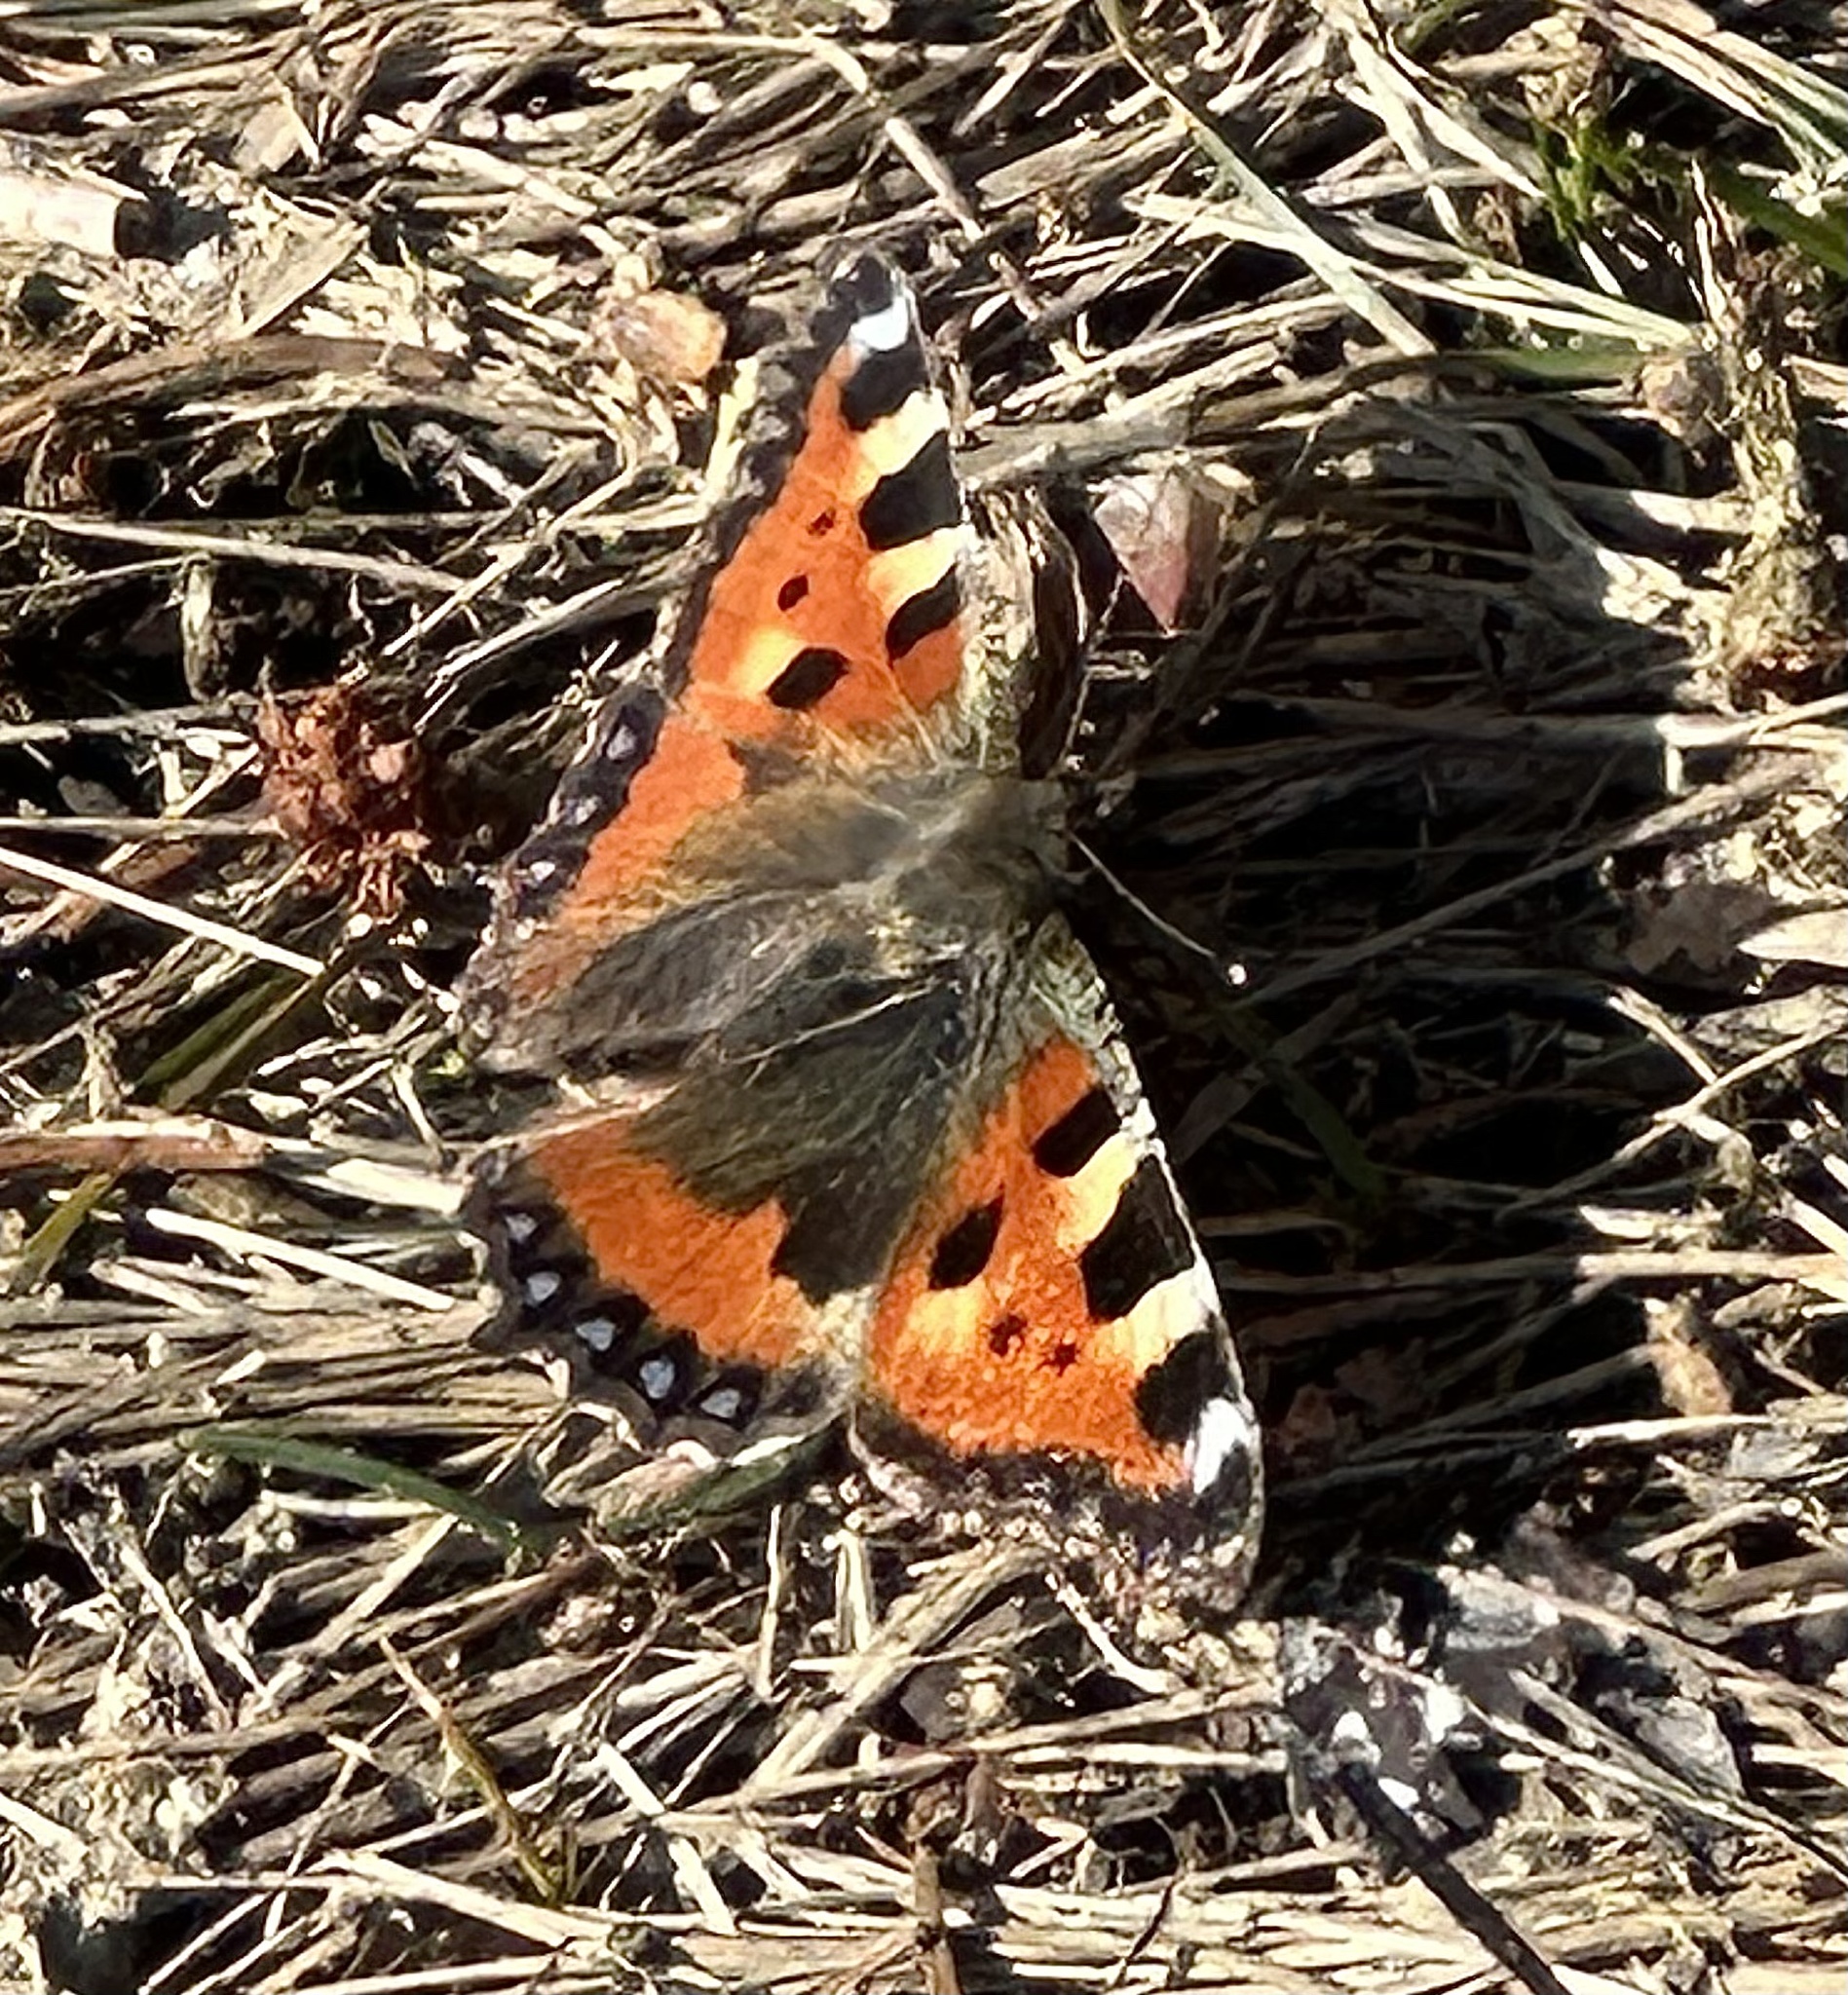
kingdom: Animalia
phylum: Arthropoda
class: Insecta
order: Lepidoptera
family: Nymphalidae
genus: Aglais
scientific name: Aglais urticae
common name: Small tortoiseshell
